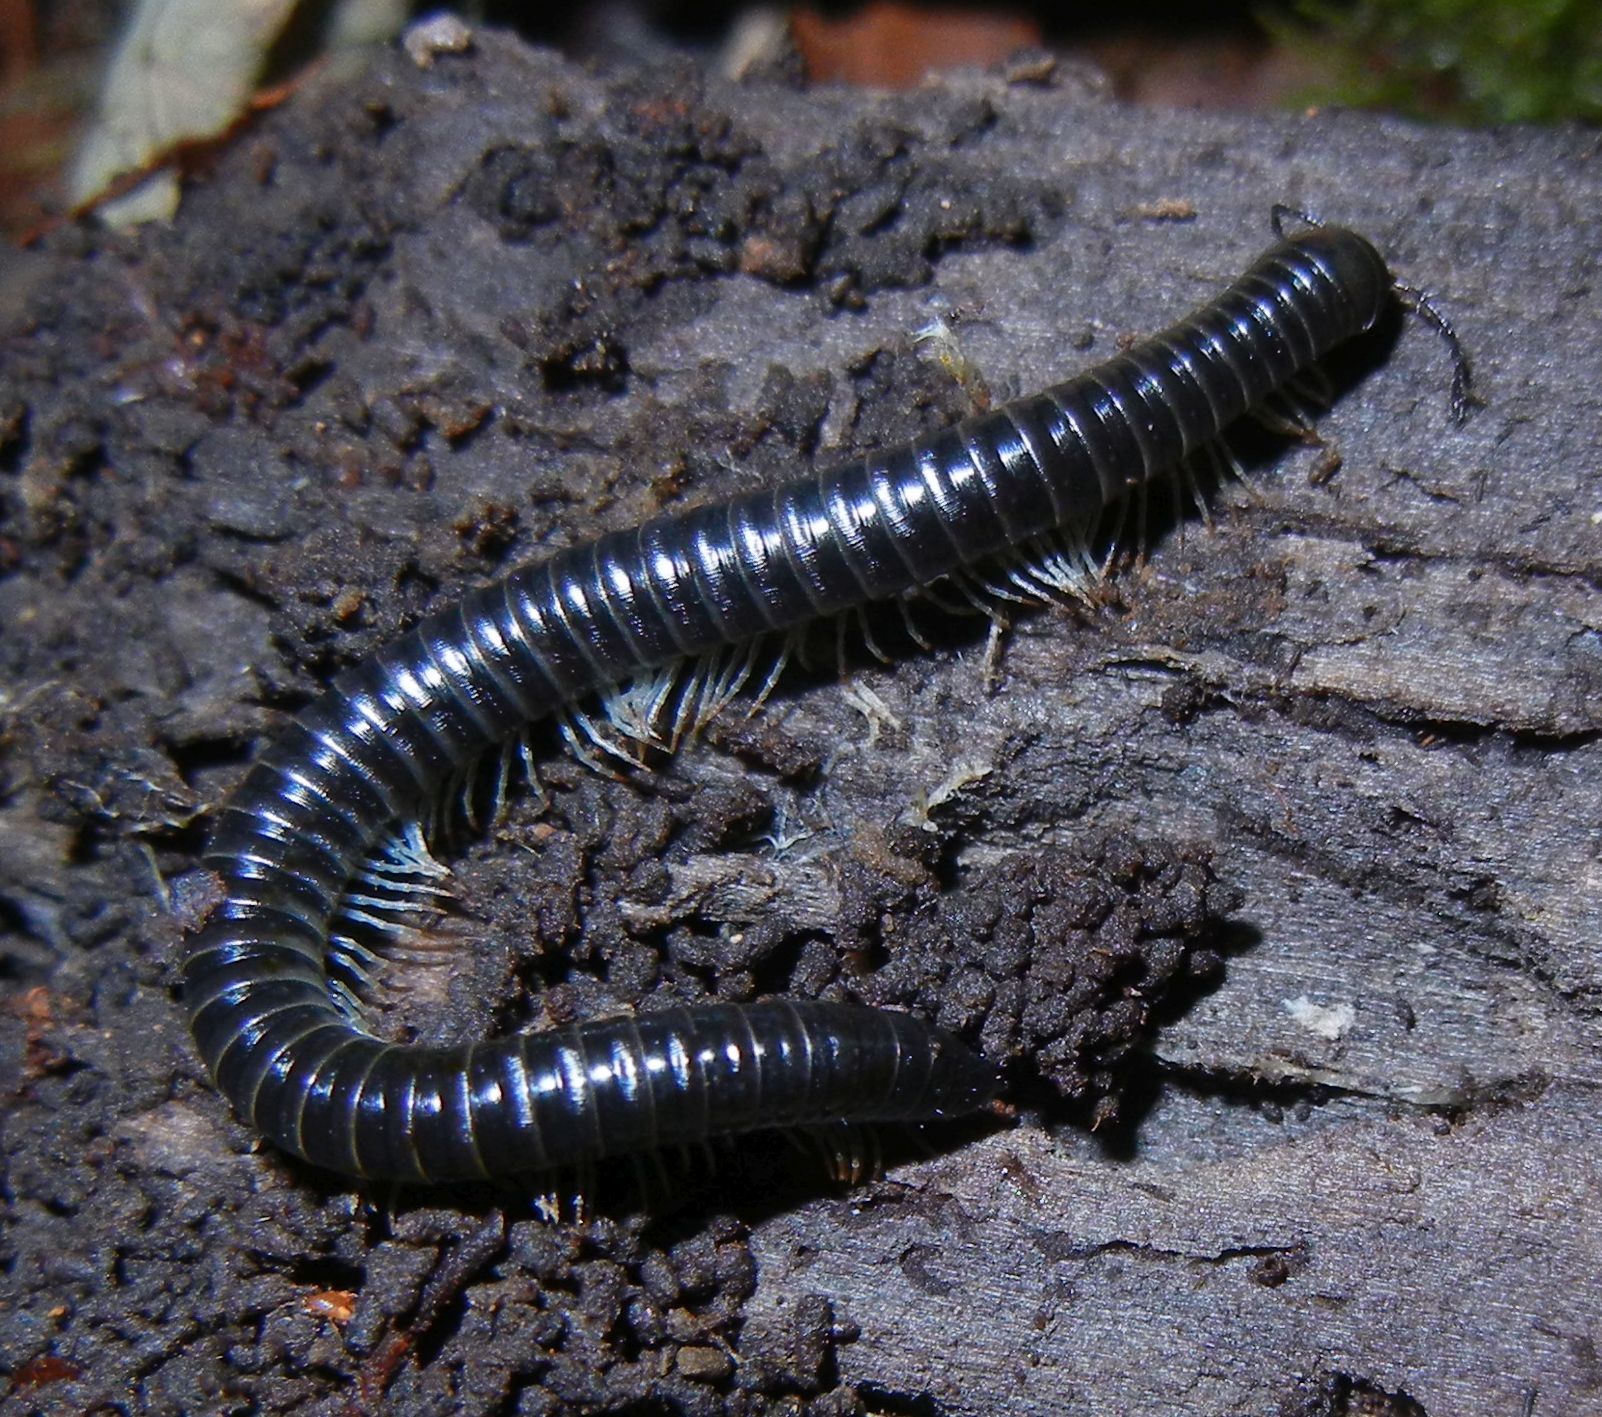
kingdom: Animalia
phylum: Arthropoda
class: Diplopoda
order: Julida
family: Julidae
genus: Tachypodoiulus
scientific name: Tachypodoiulus niger
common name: White-legged snake millipede
